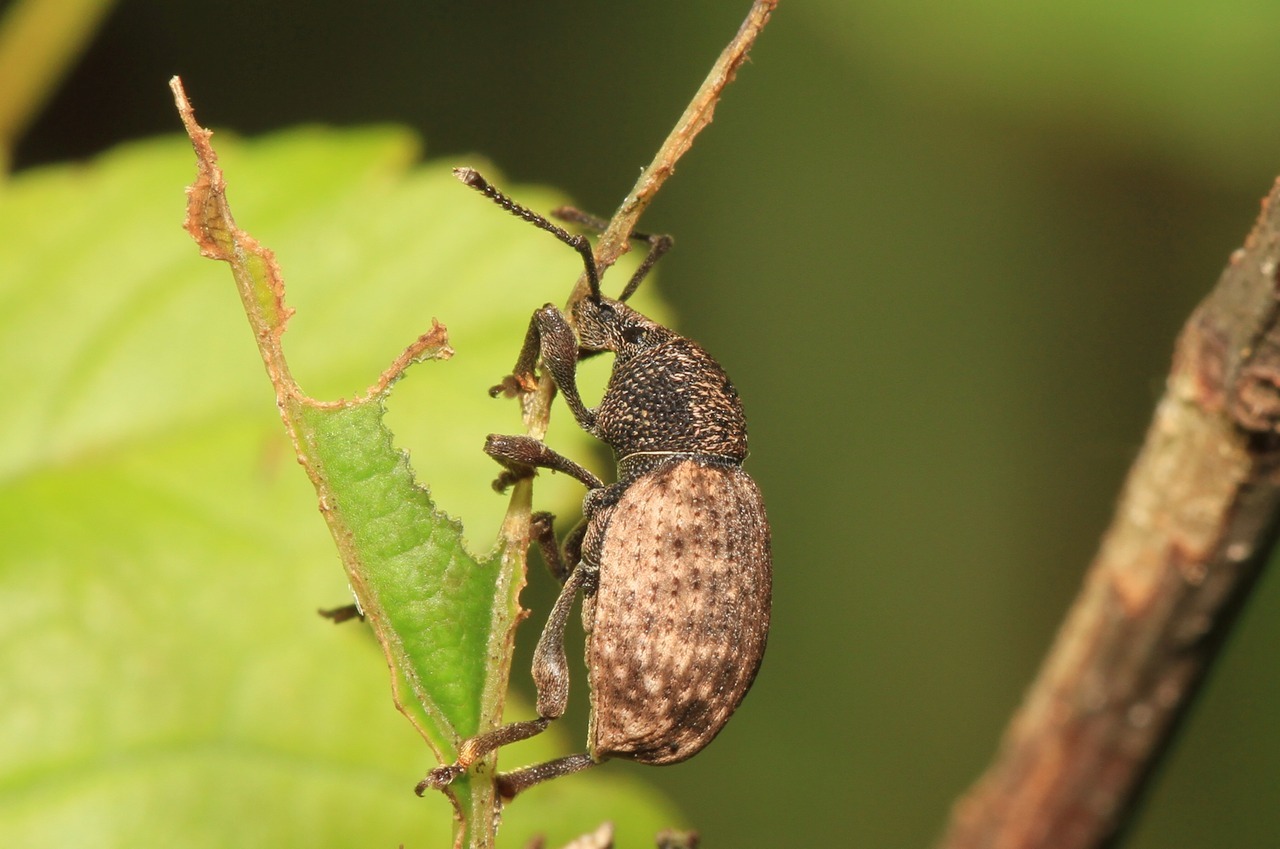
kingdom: Animalia
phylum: Arthropoda
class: Insecta
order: Coleoptera
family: Curculionidae
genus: Otiorhynchus
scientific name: Otiorhynchus raucus
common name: Weevil
